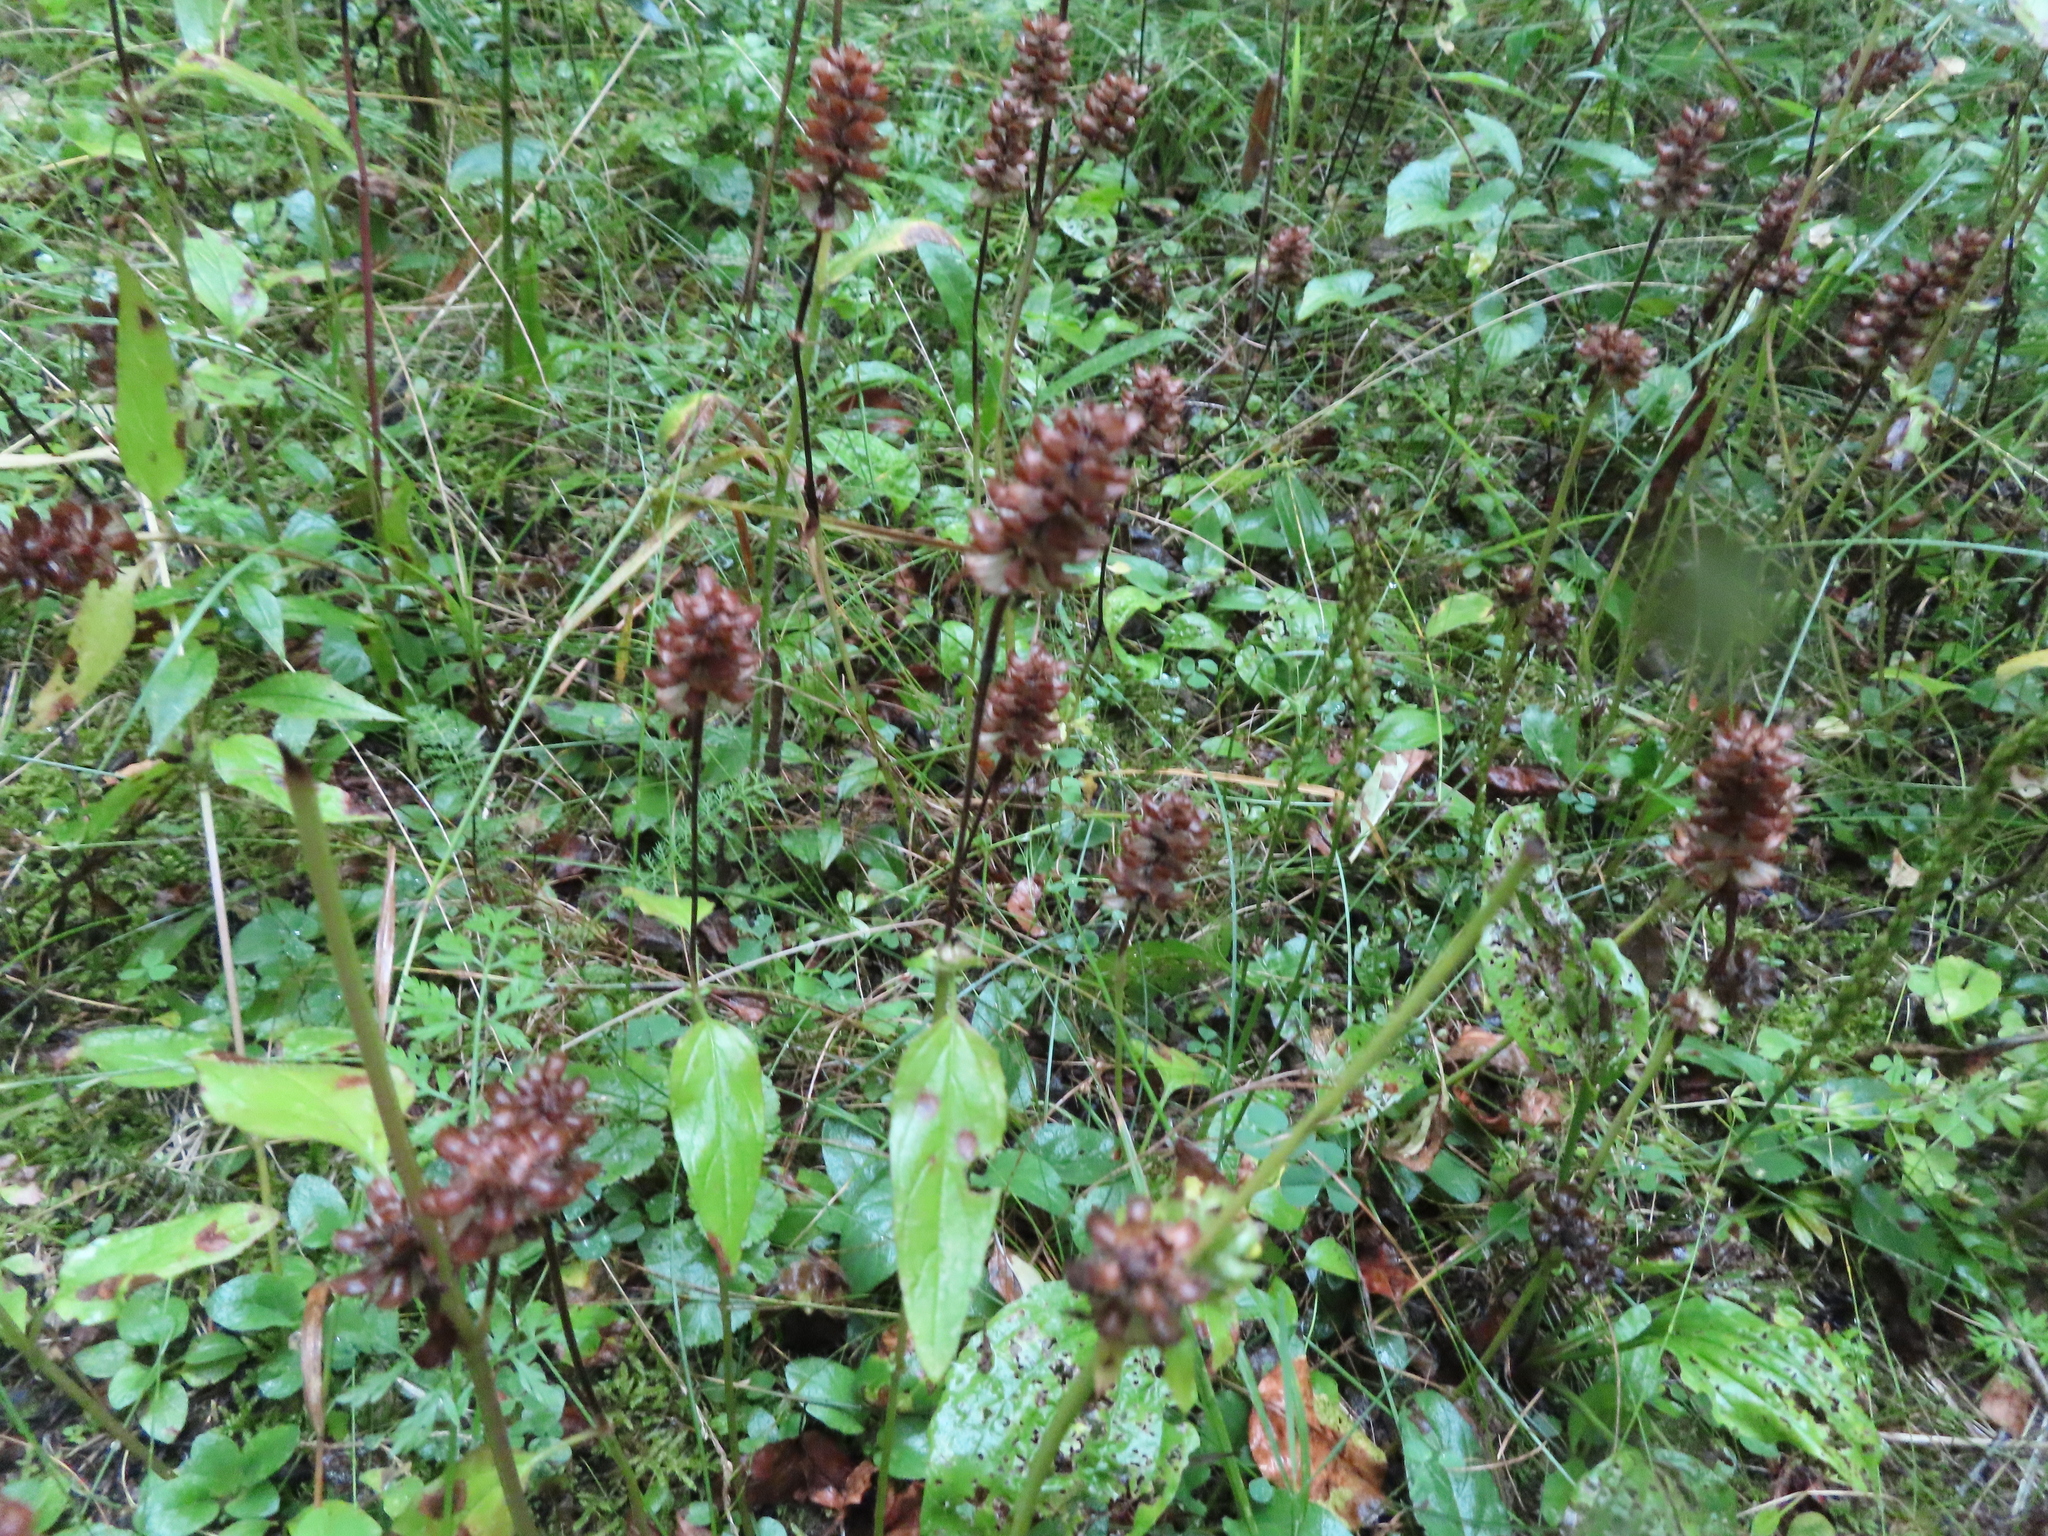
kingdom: Plantae
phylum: Tracheophyta
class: Magnoliopsida
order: Lamiales
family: Lamiaceae
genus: Prunella
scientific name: Prunella vulgaris
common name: Heal-all
